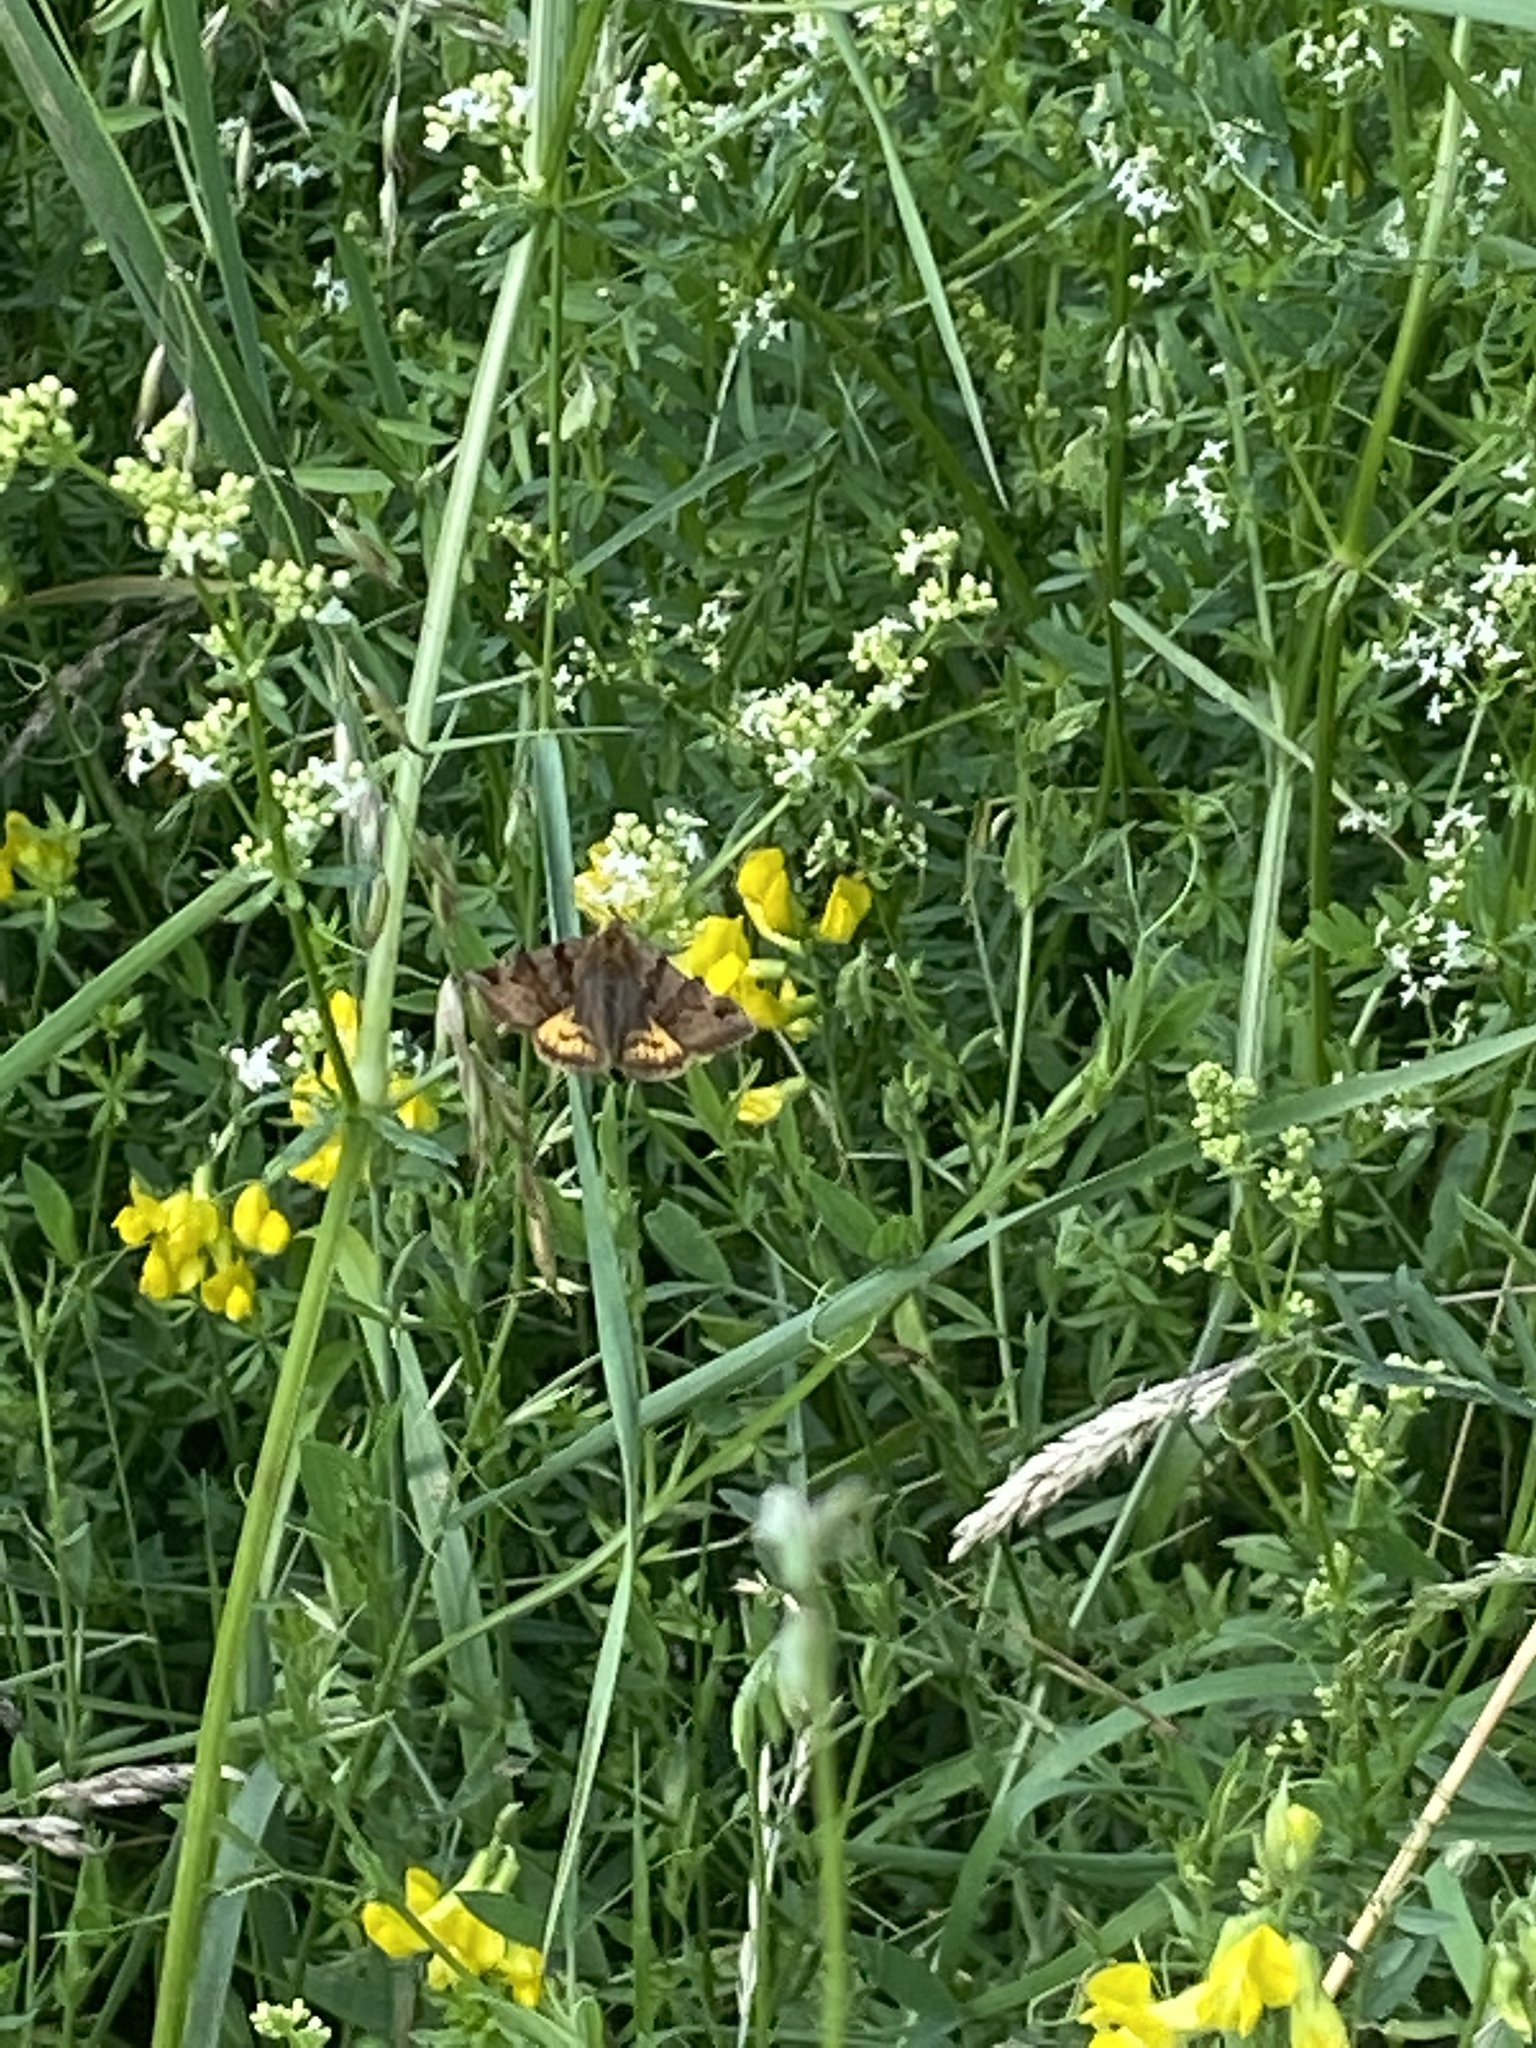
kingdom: Animalia
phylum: Arthropoda
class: Insecta
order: Lepidoptera
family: Erebidae
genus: Euclidia
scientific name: Euclidia glyphica
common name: Burnet companion
